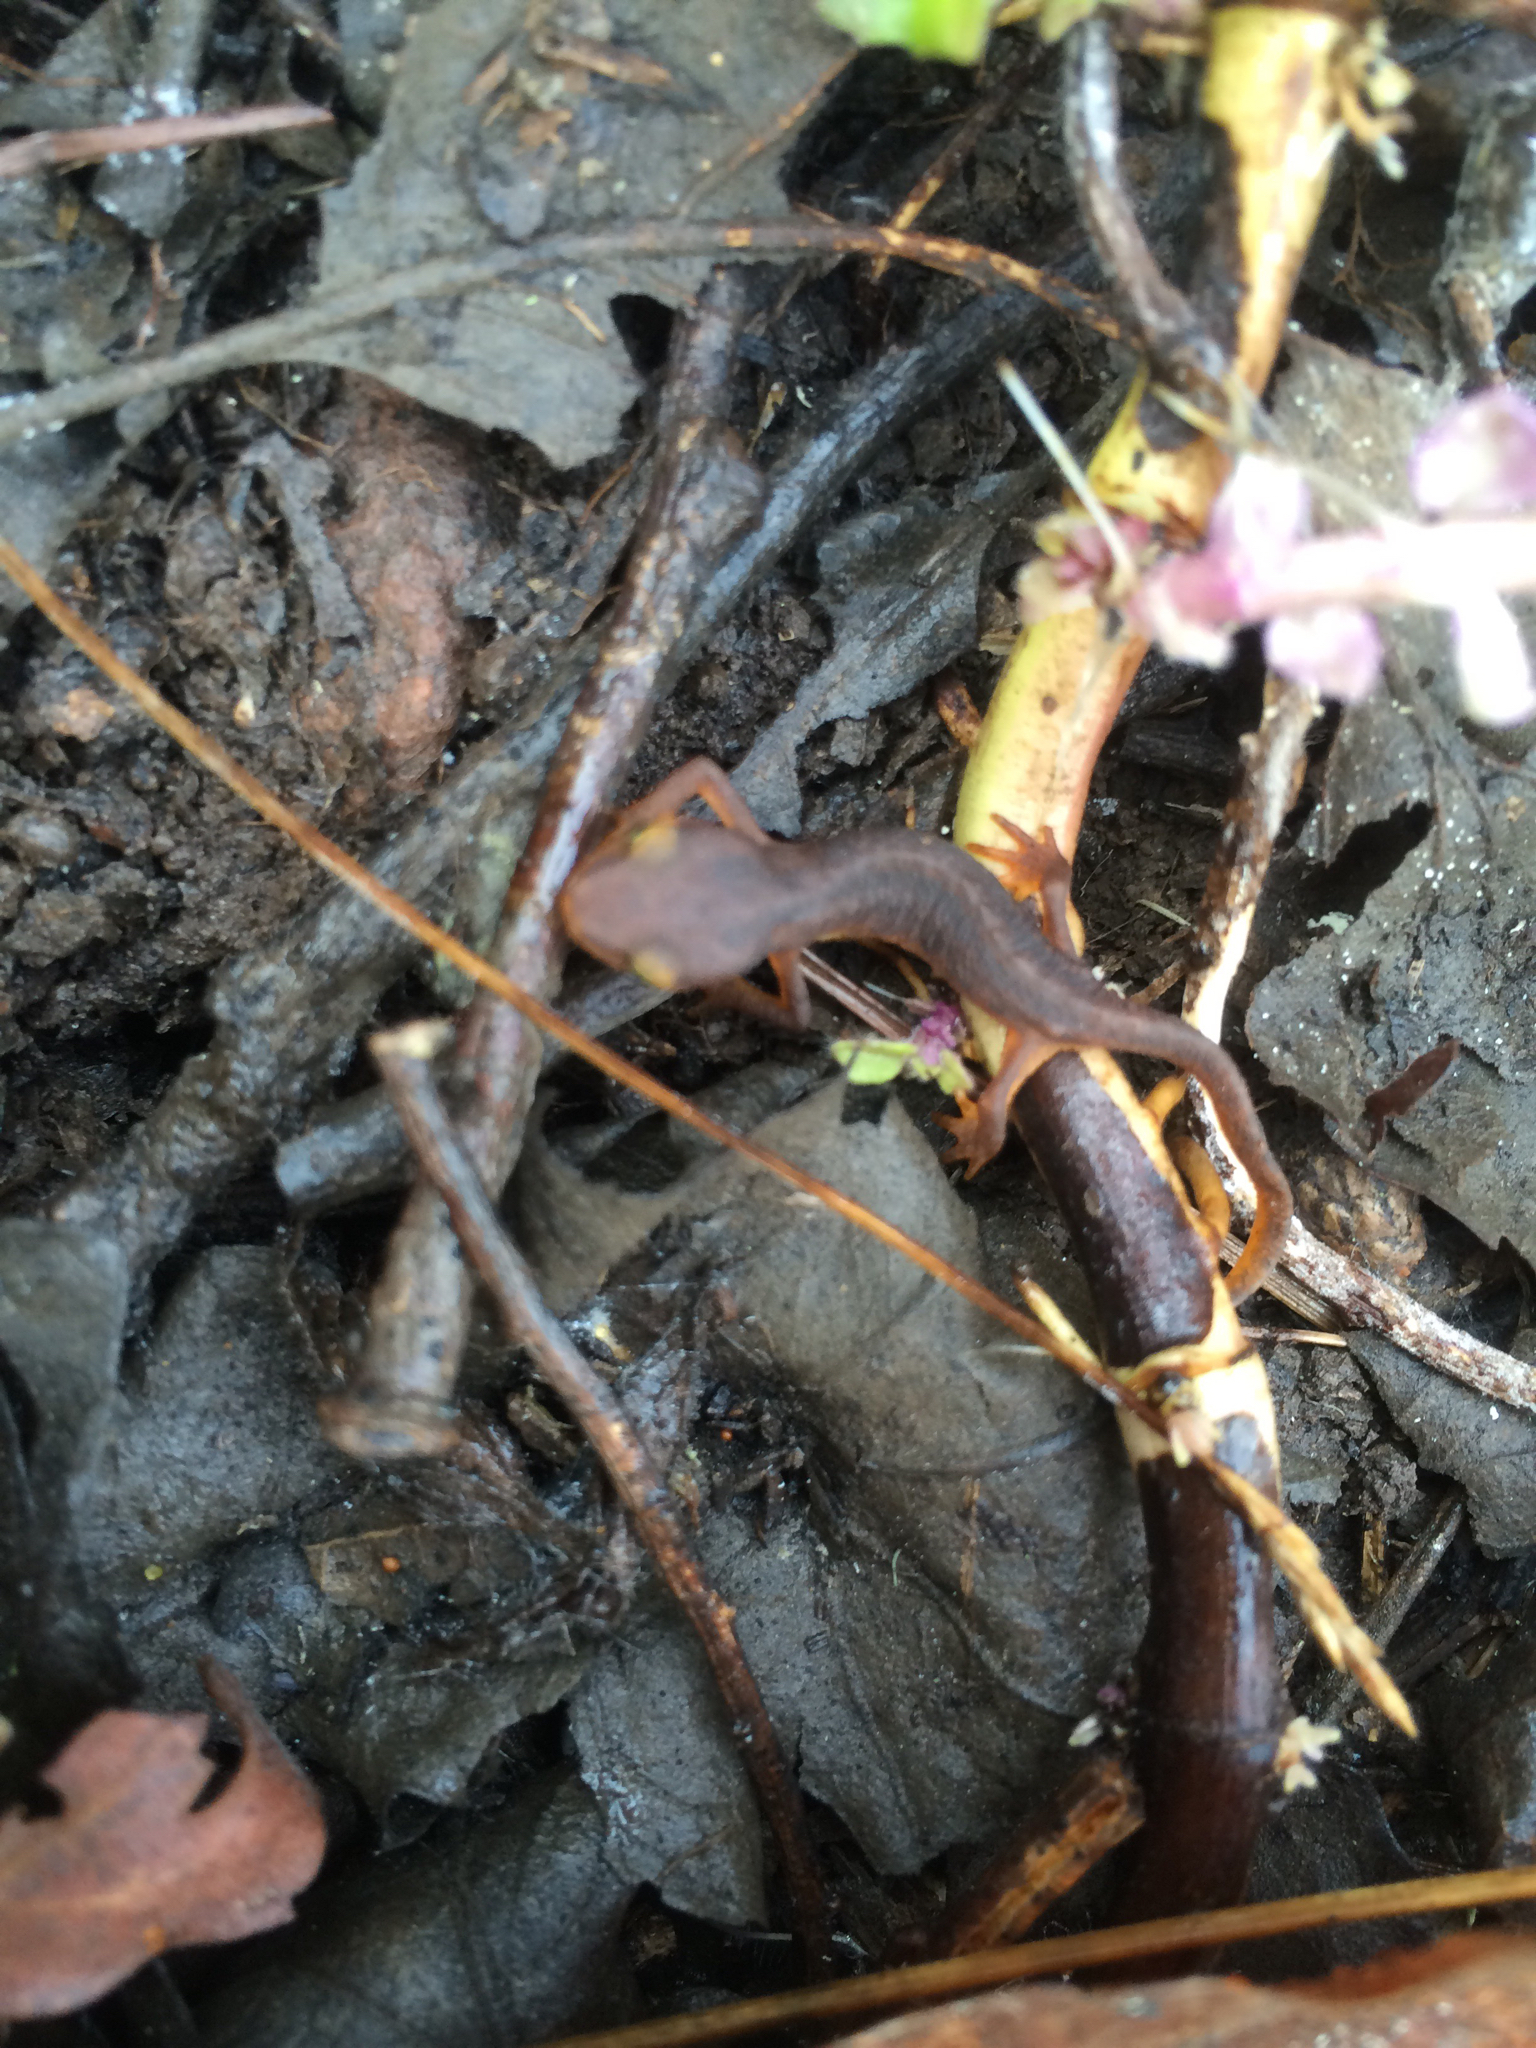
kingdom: Animalia
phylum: Chordata
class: Amphibia
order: Caudata
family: Salamandridae
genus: Taricha
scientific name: Taricha torosa
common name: California newt
